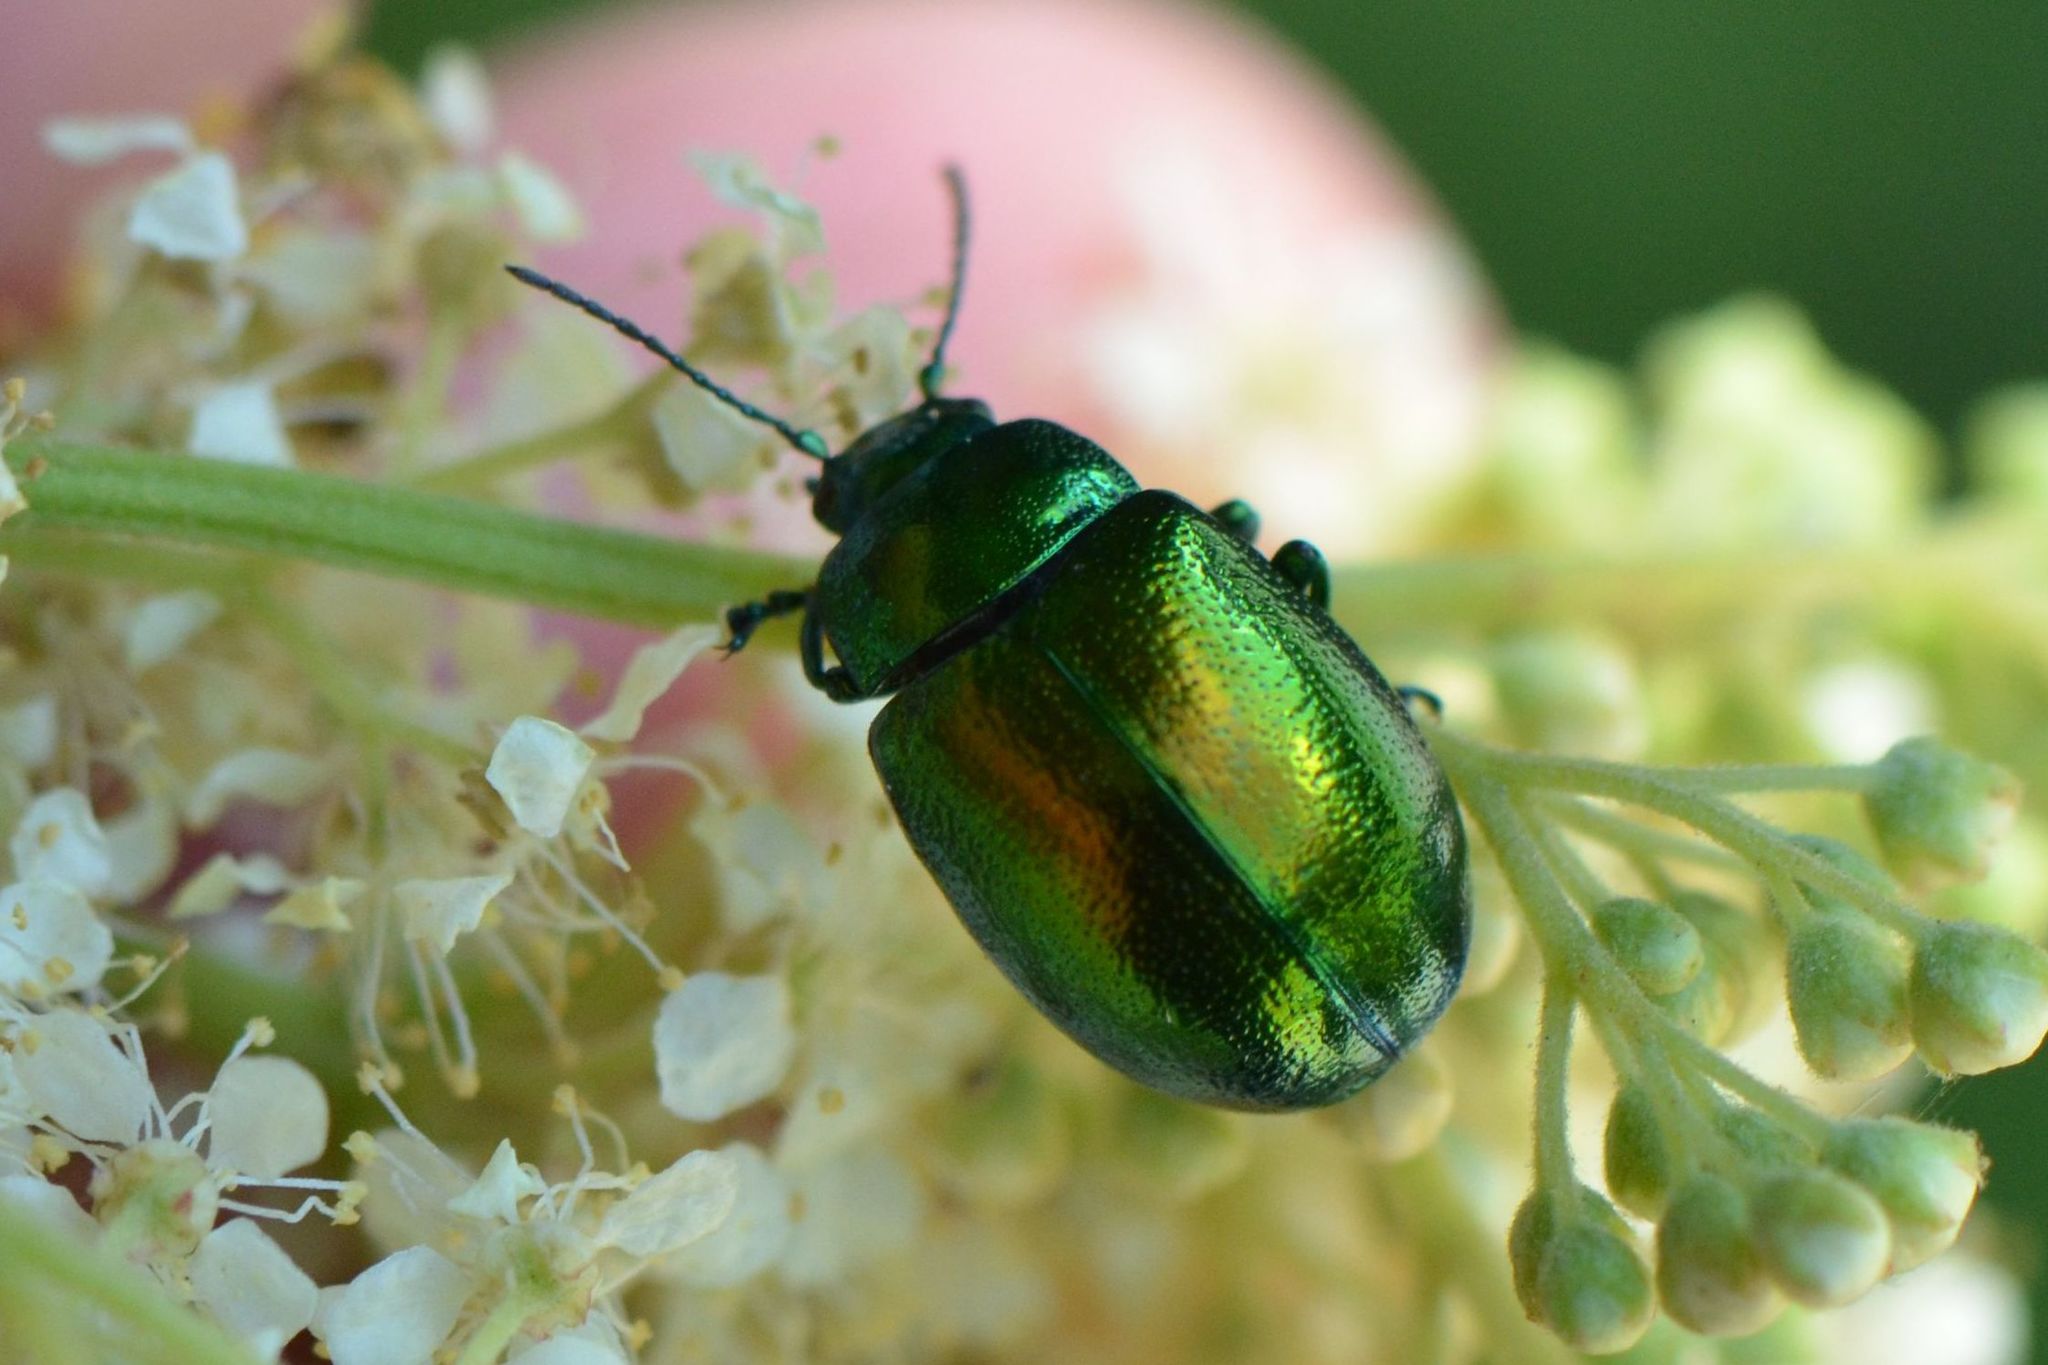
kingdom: Animalia
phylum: Arthropoda
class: Insecta
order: Coleoptera
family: Chrysomelidae
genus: Chrysolina
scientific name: Chrysolina herbacea
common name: Mint leaf beatle
